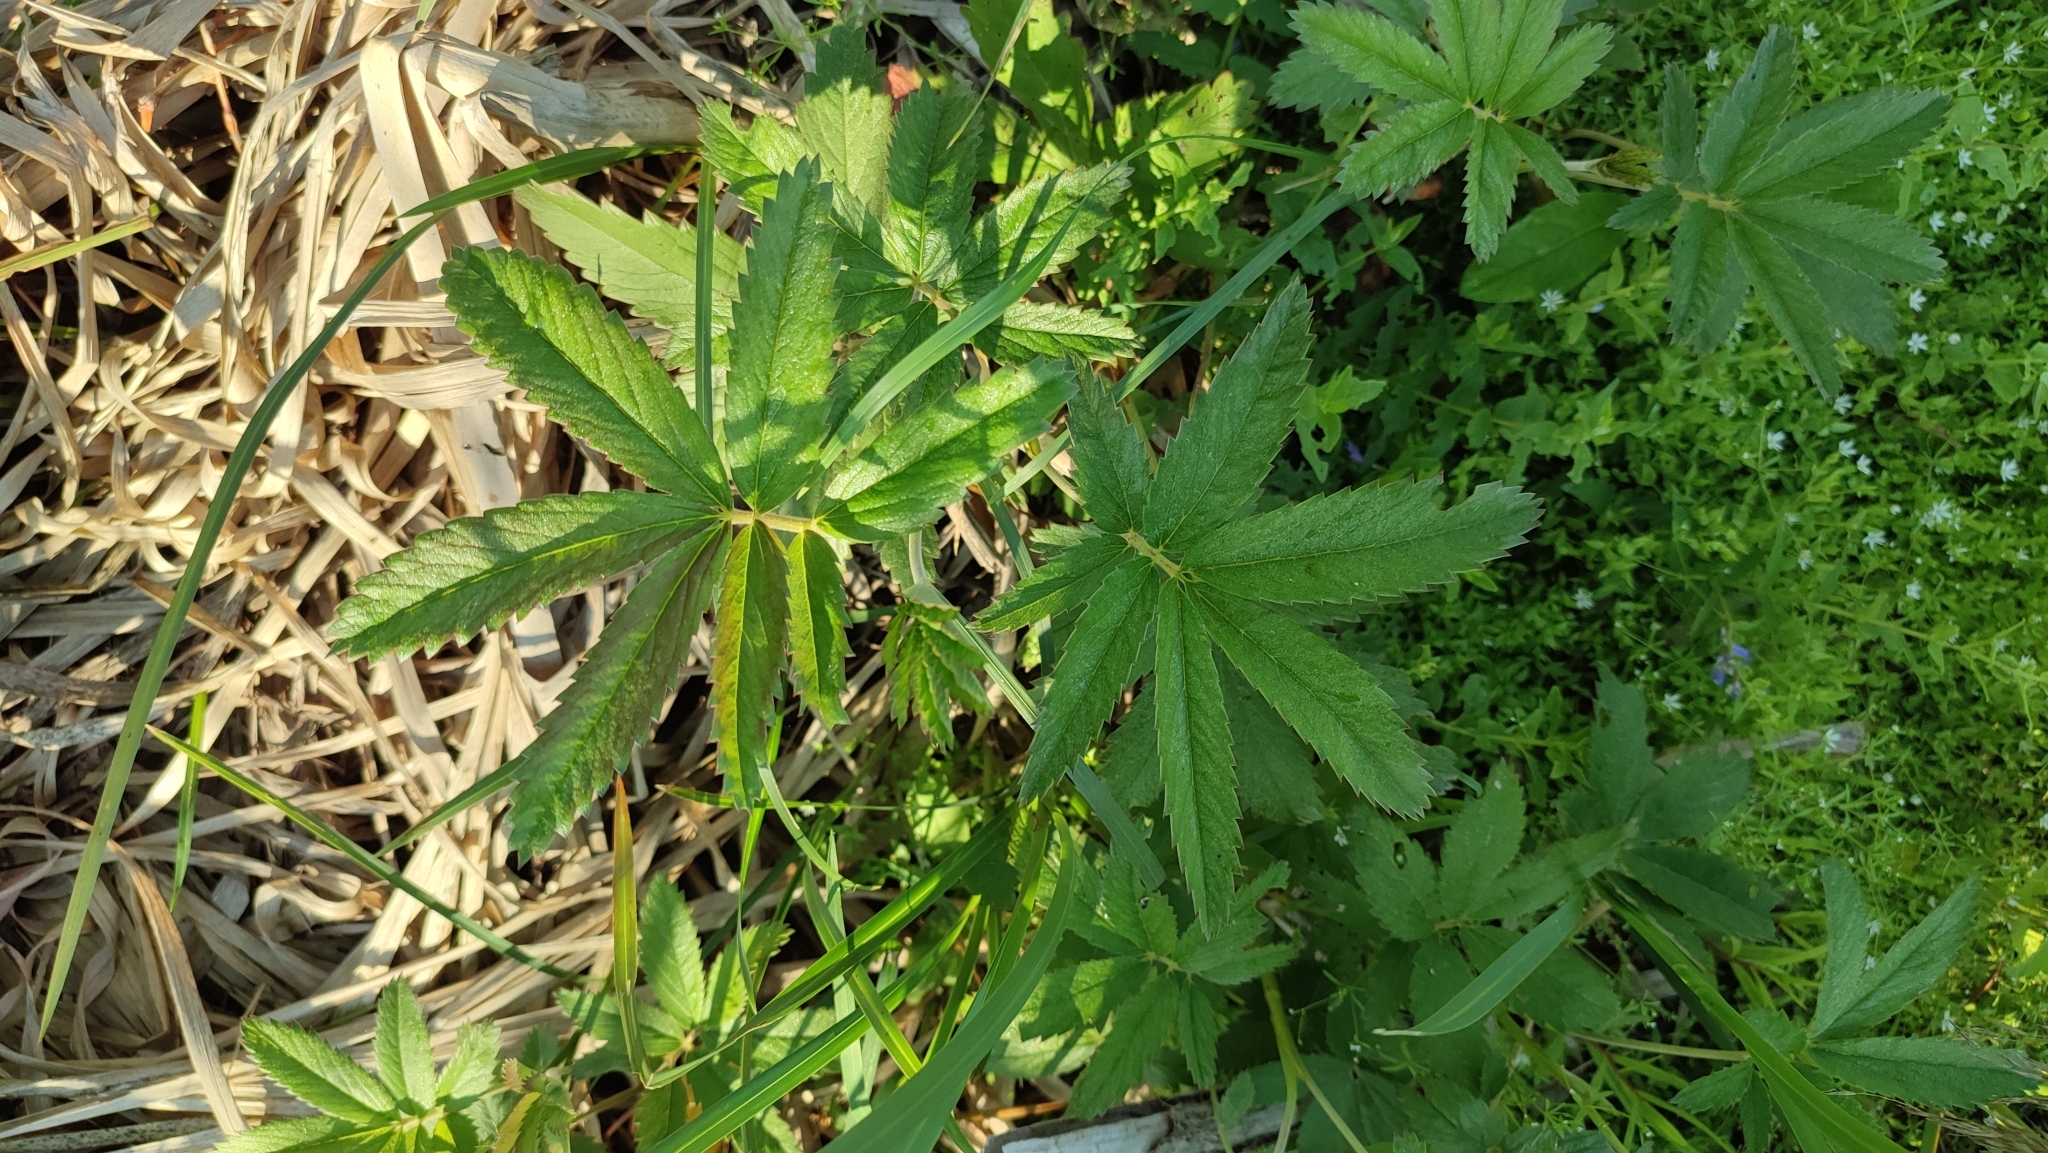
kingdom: Plantae
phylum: Tracheophyta
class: Magnoliopsida
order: Rosales
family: Rosaceae
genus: Comarum
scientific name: Comarum palustre
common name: Marsh cinquefoil
